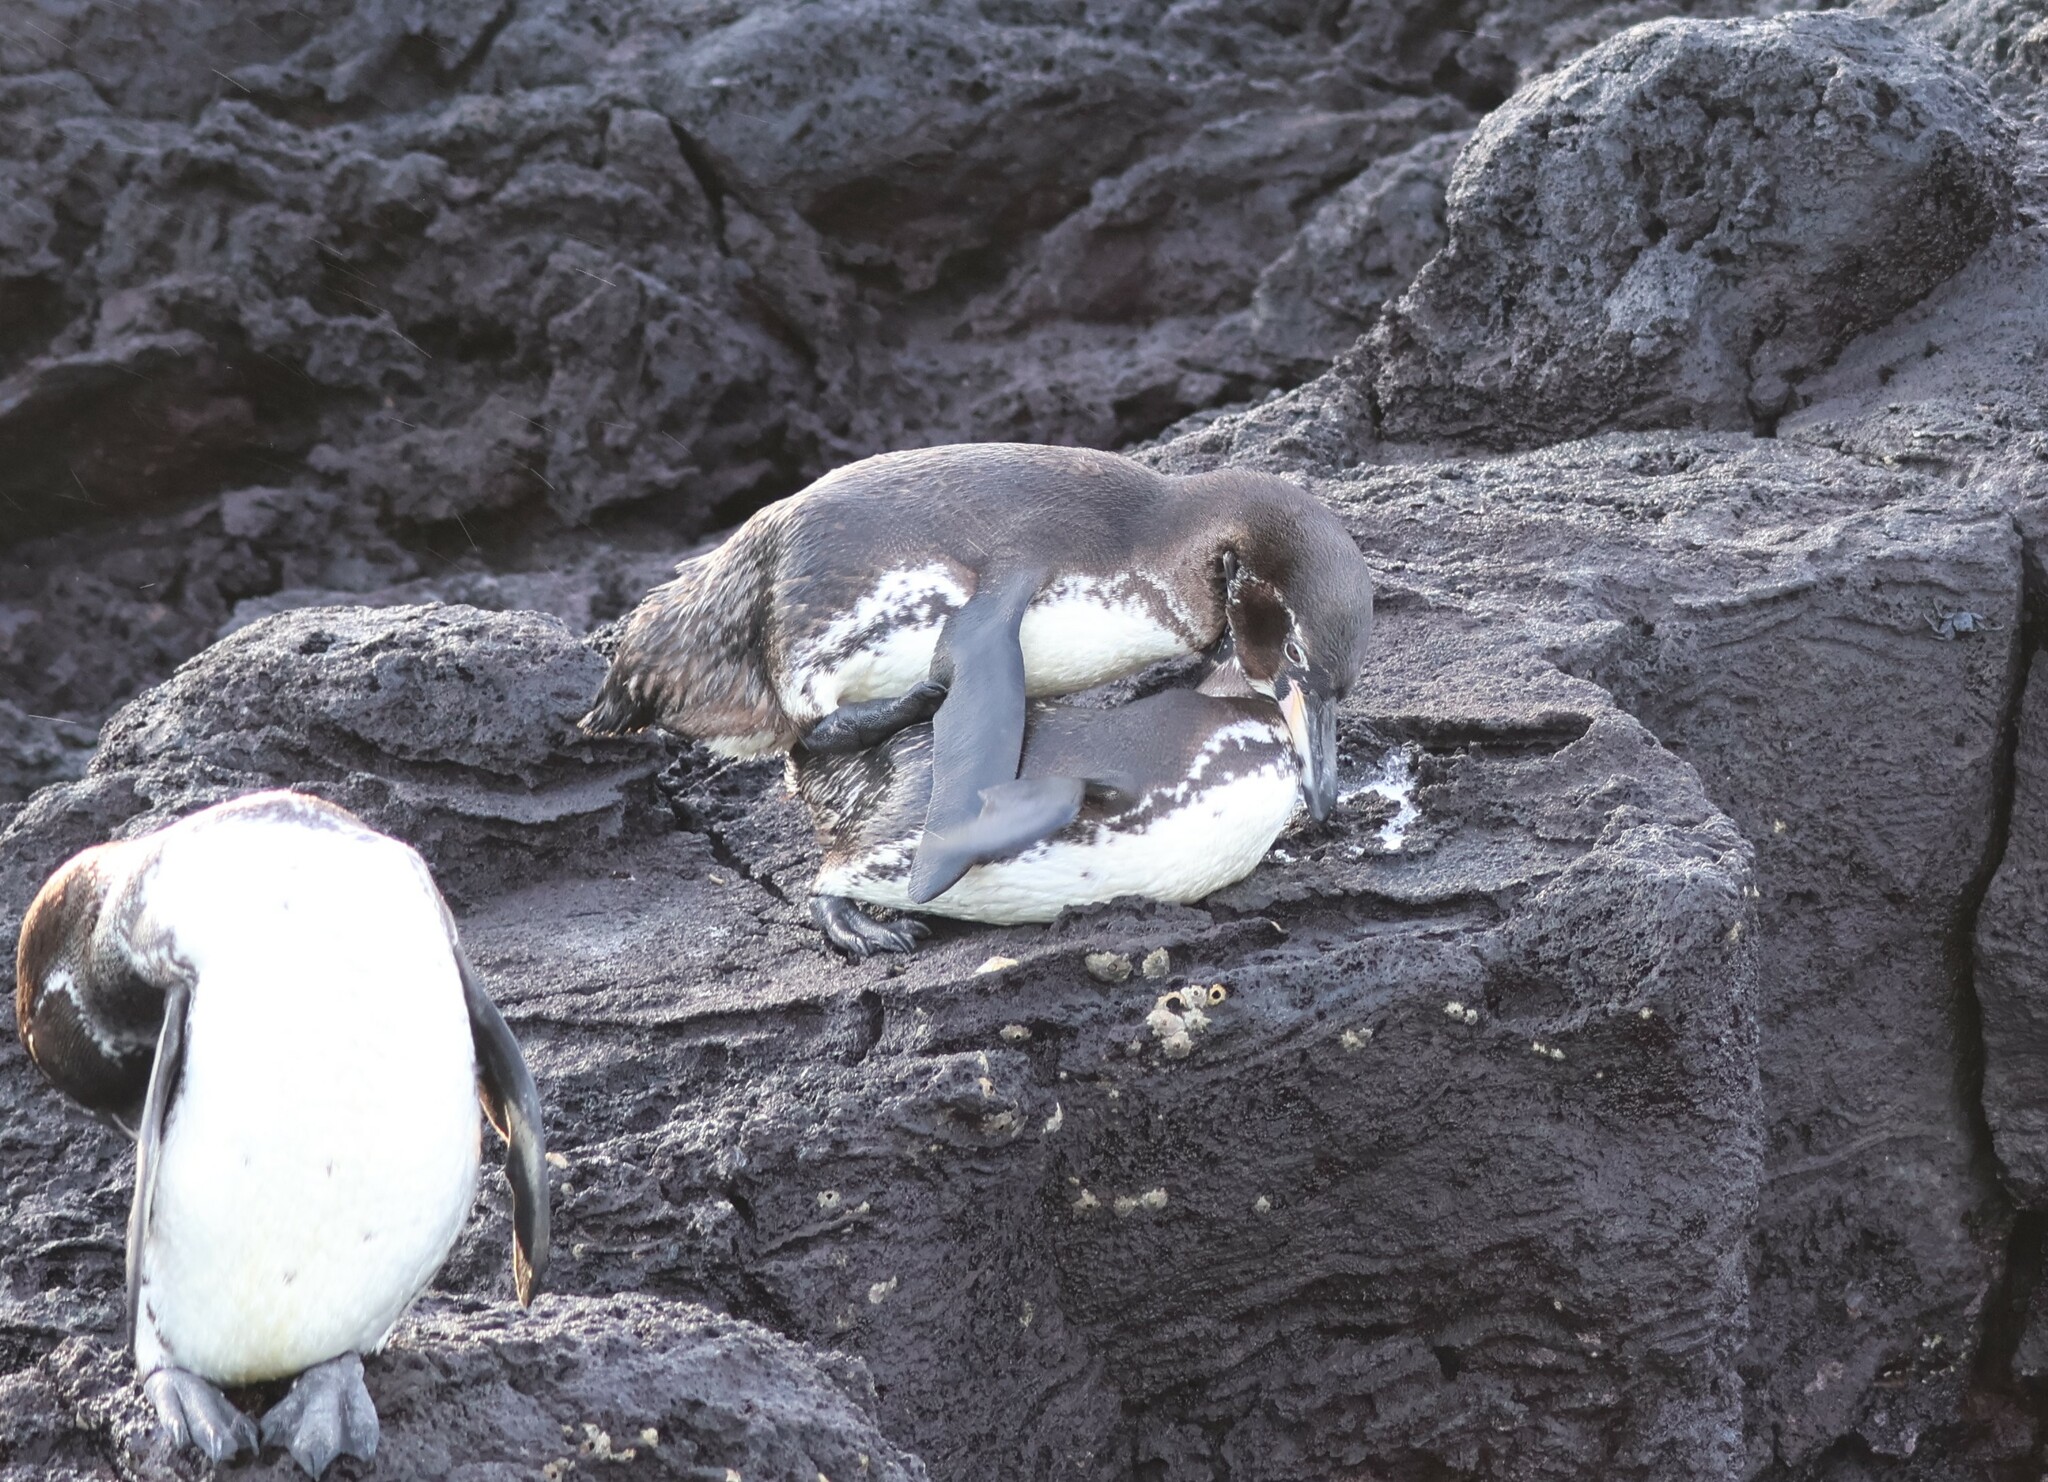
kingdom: Animalia
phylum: Chordata
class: Aves
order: Sphenisciformes
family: Spheniscidae
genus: Spheniscus
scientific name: Spheniscus mendiculus
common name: Galapagos penguin
